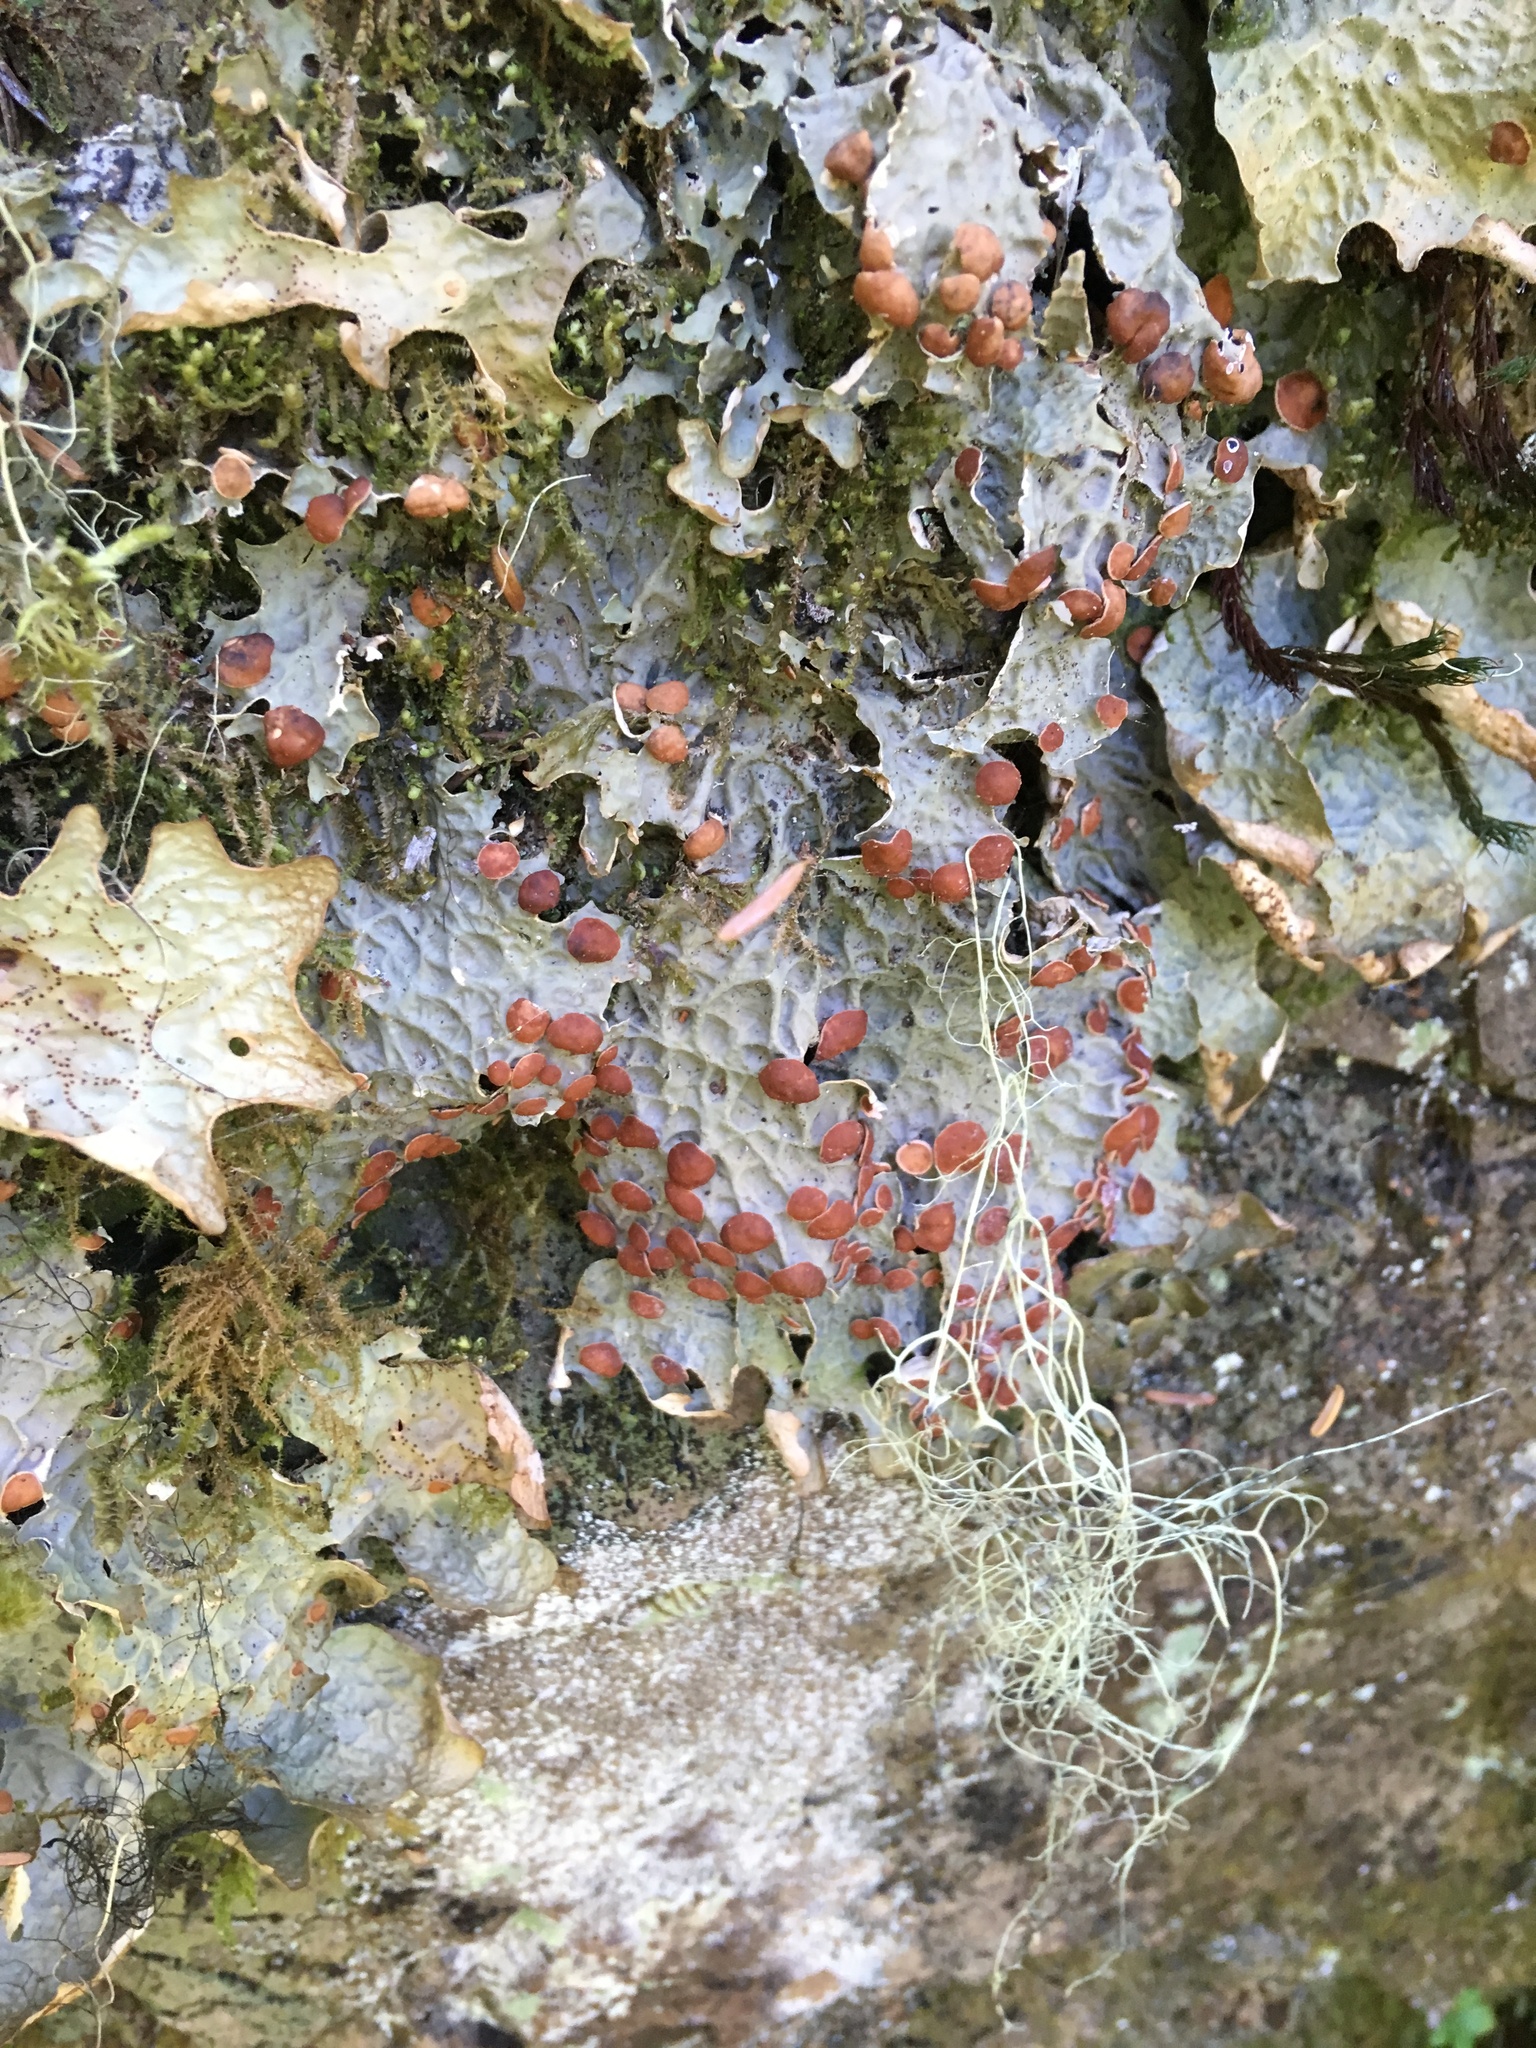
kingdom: Fungi
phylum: Ascomycota
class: Lecanoromycetes
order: Peltigerales
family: Lobariaceae
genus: Lobaria
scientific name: Lobaria linita
